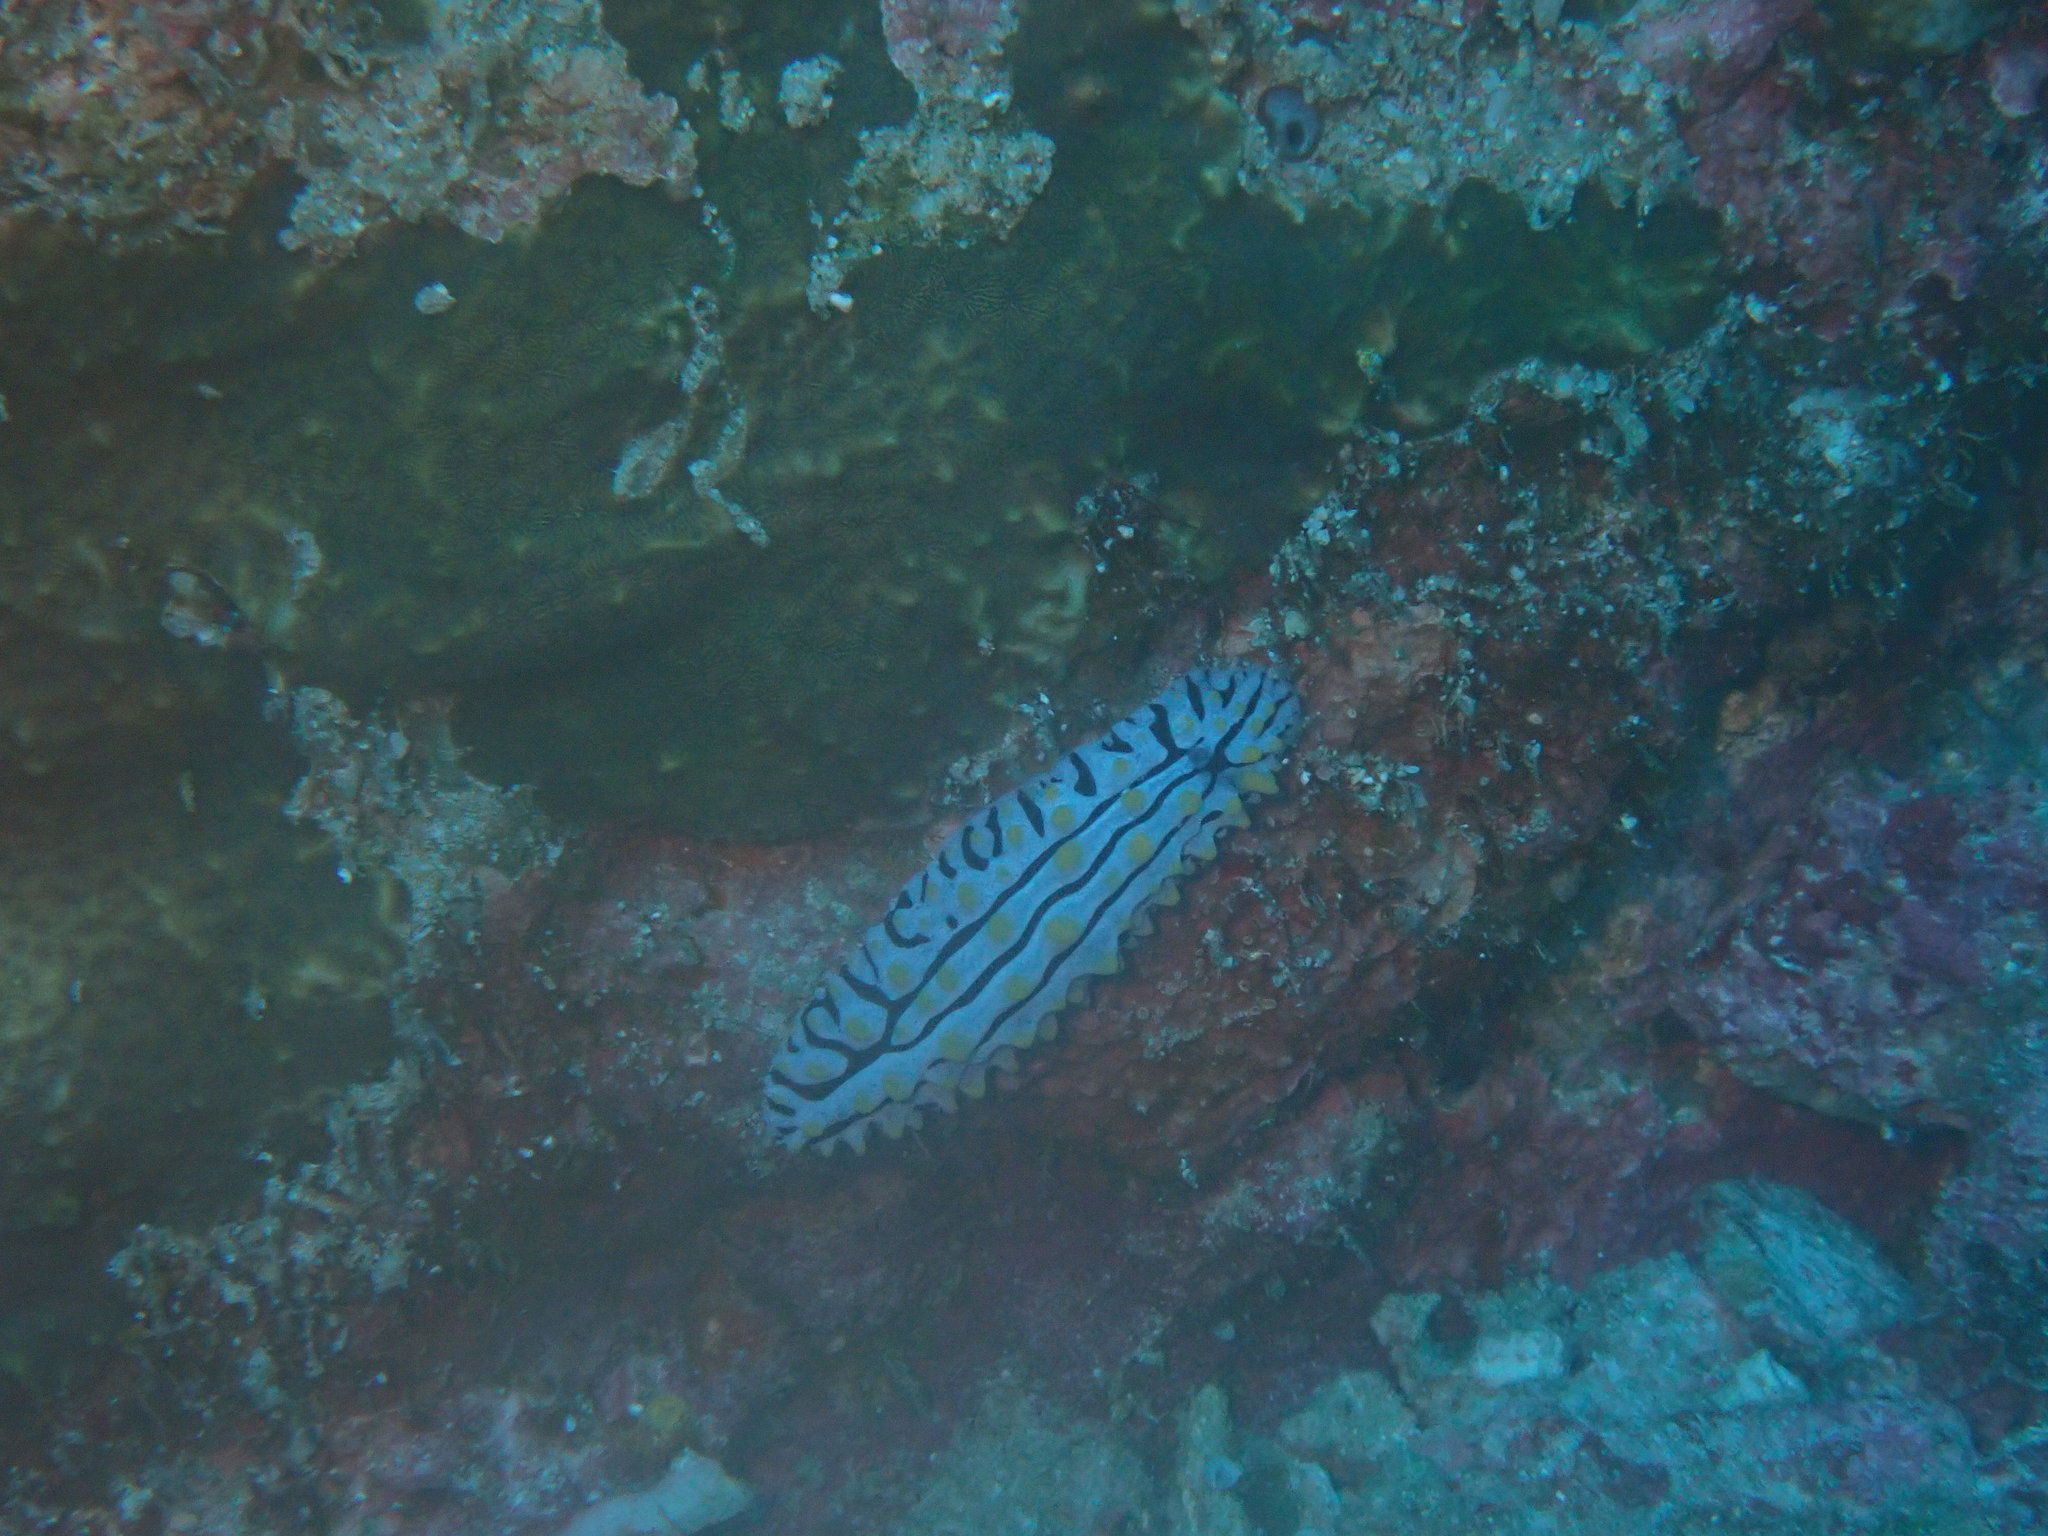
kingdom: Animalia
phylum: Mollusca
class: Gastropoda
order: Nudibranchia
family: Phyllidiidae
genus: Phyllidia
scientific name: Phyllidia varicosa
